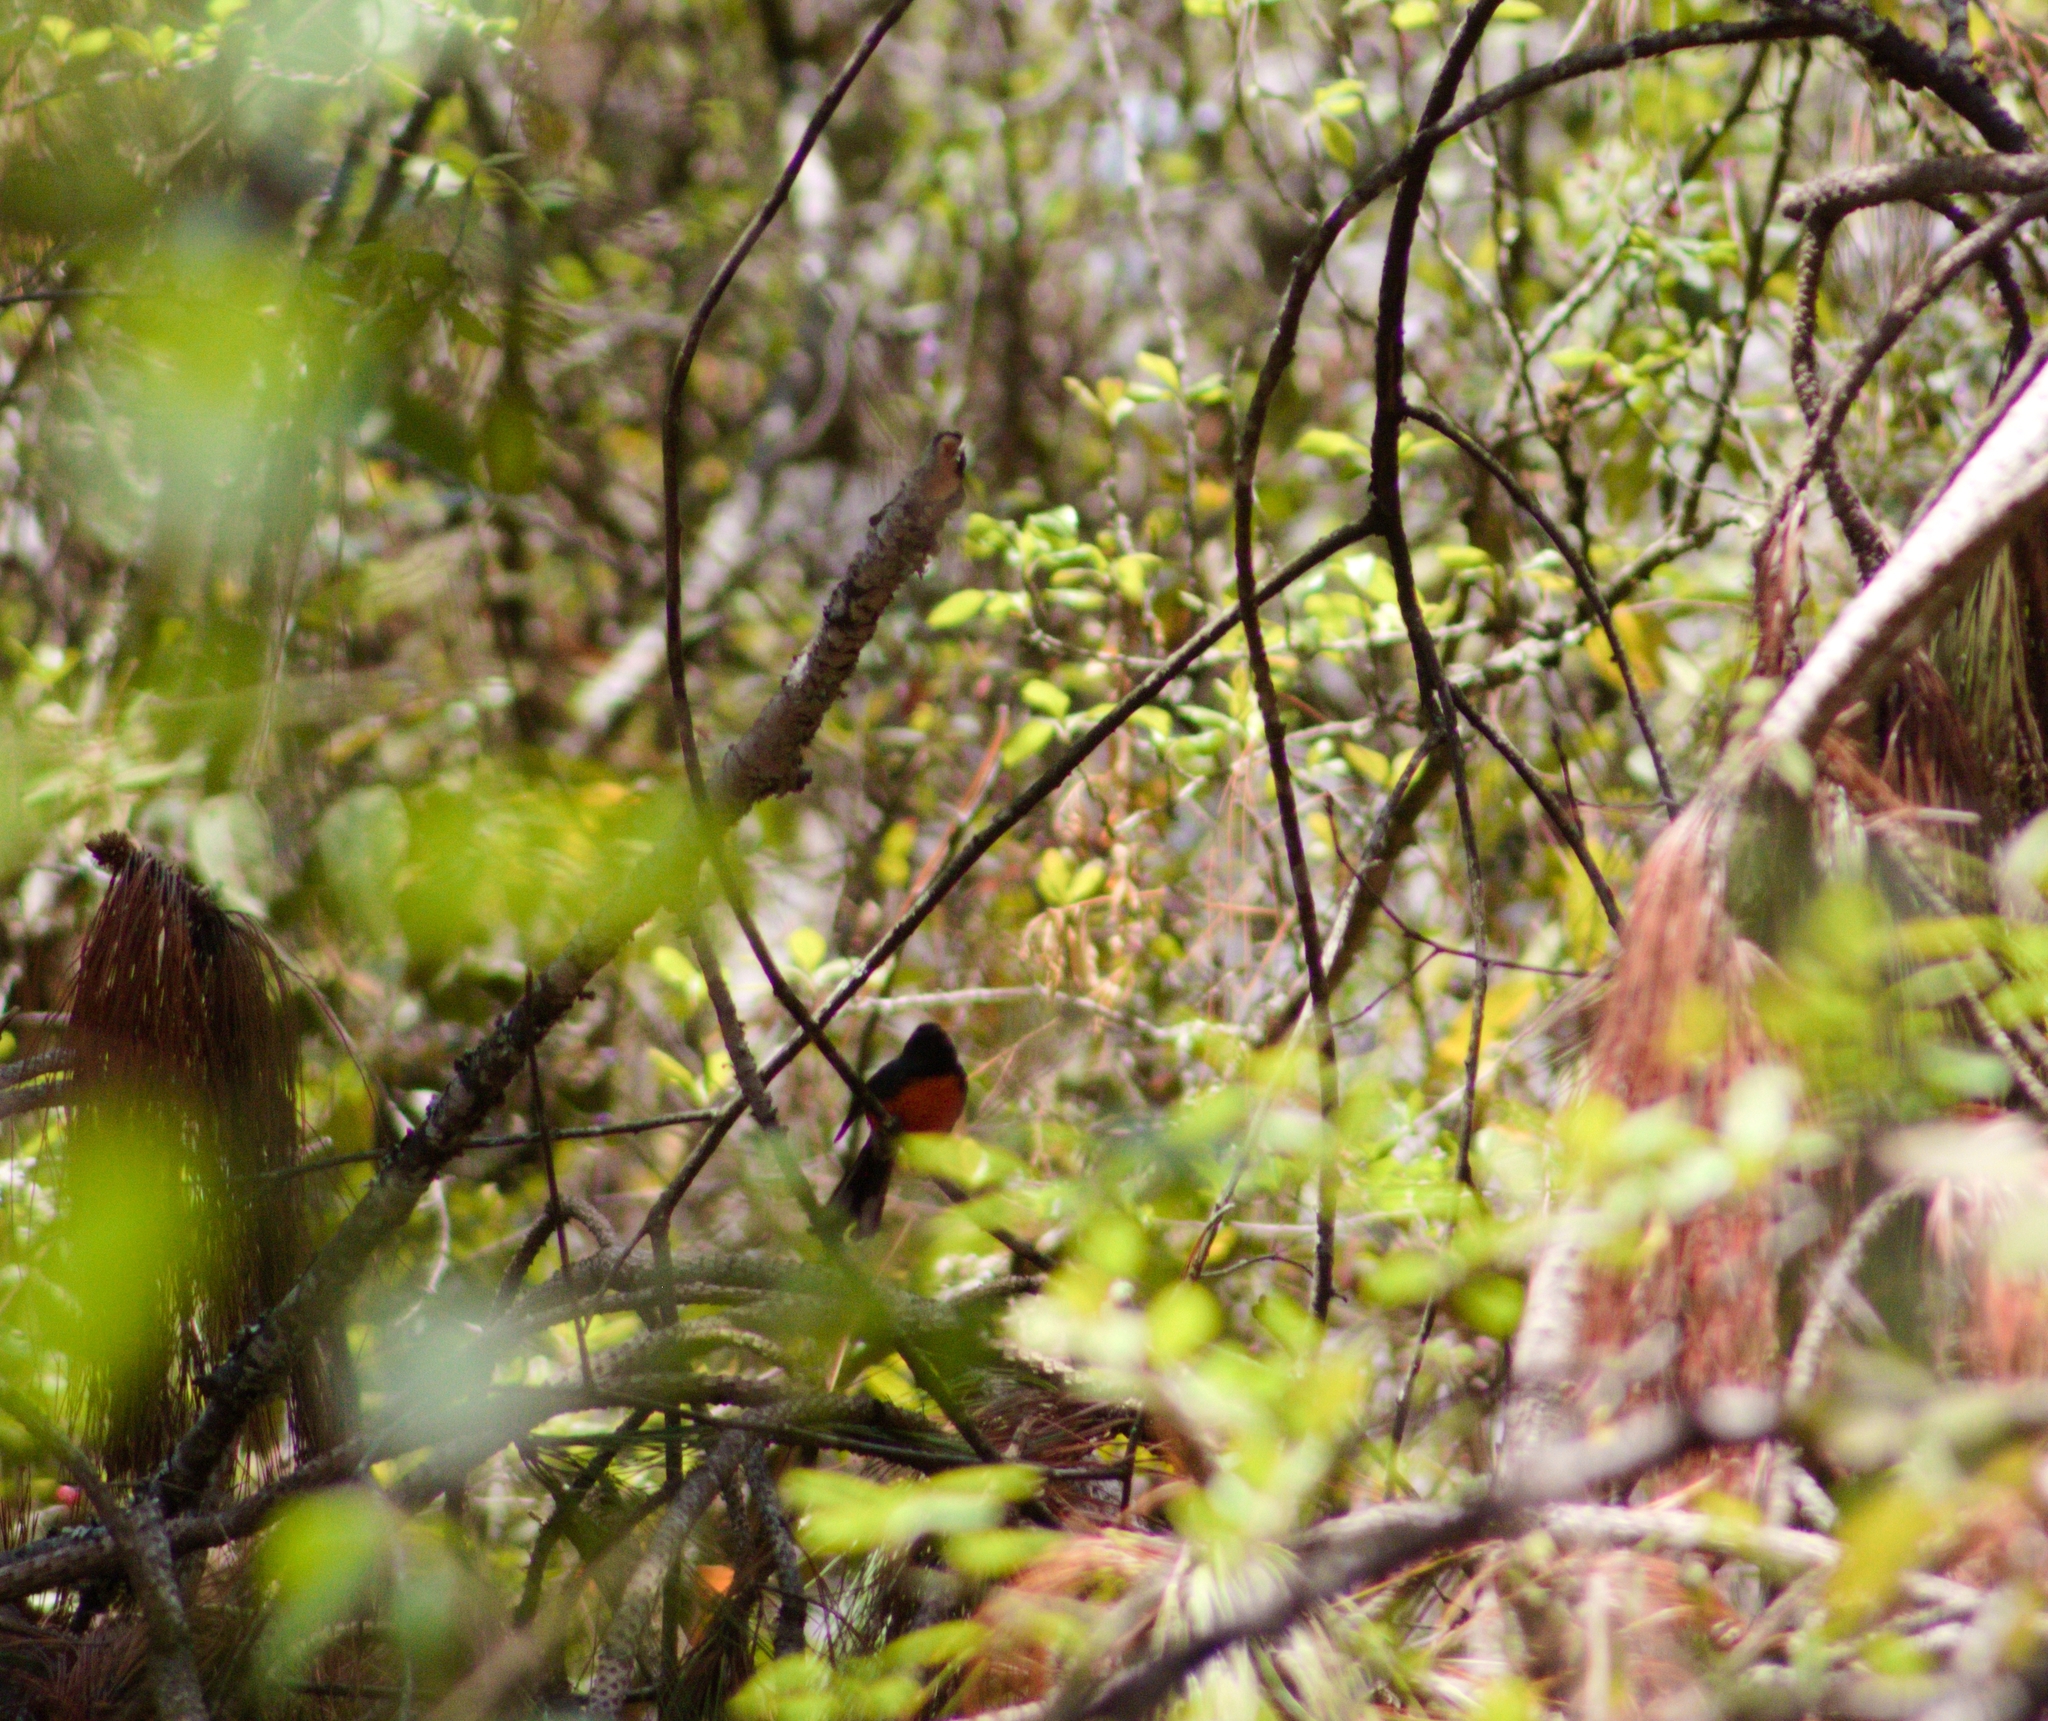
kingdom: Animalia
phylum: Chordata
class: Aves
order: Passeriformes
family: Parulidae
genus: Myioborus
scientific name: Myioborus miniatus
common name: Slate-throated redstart
